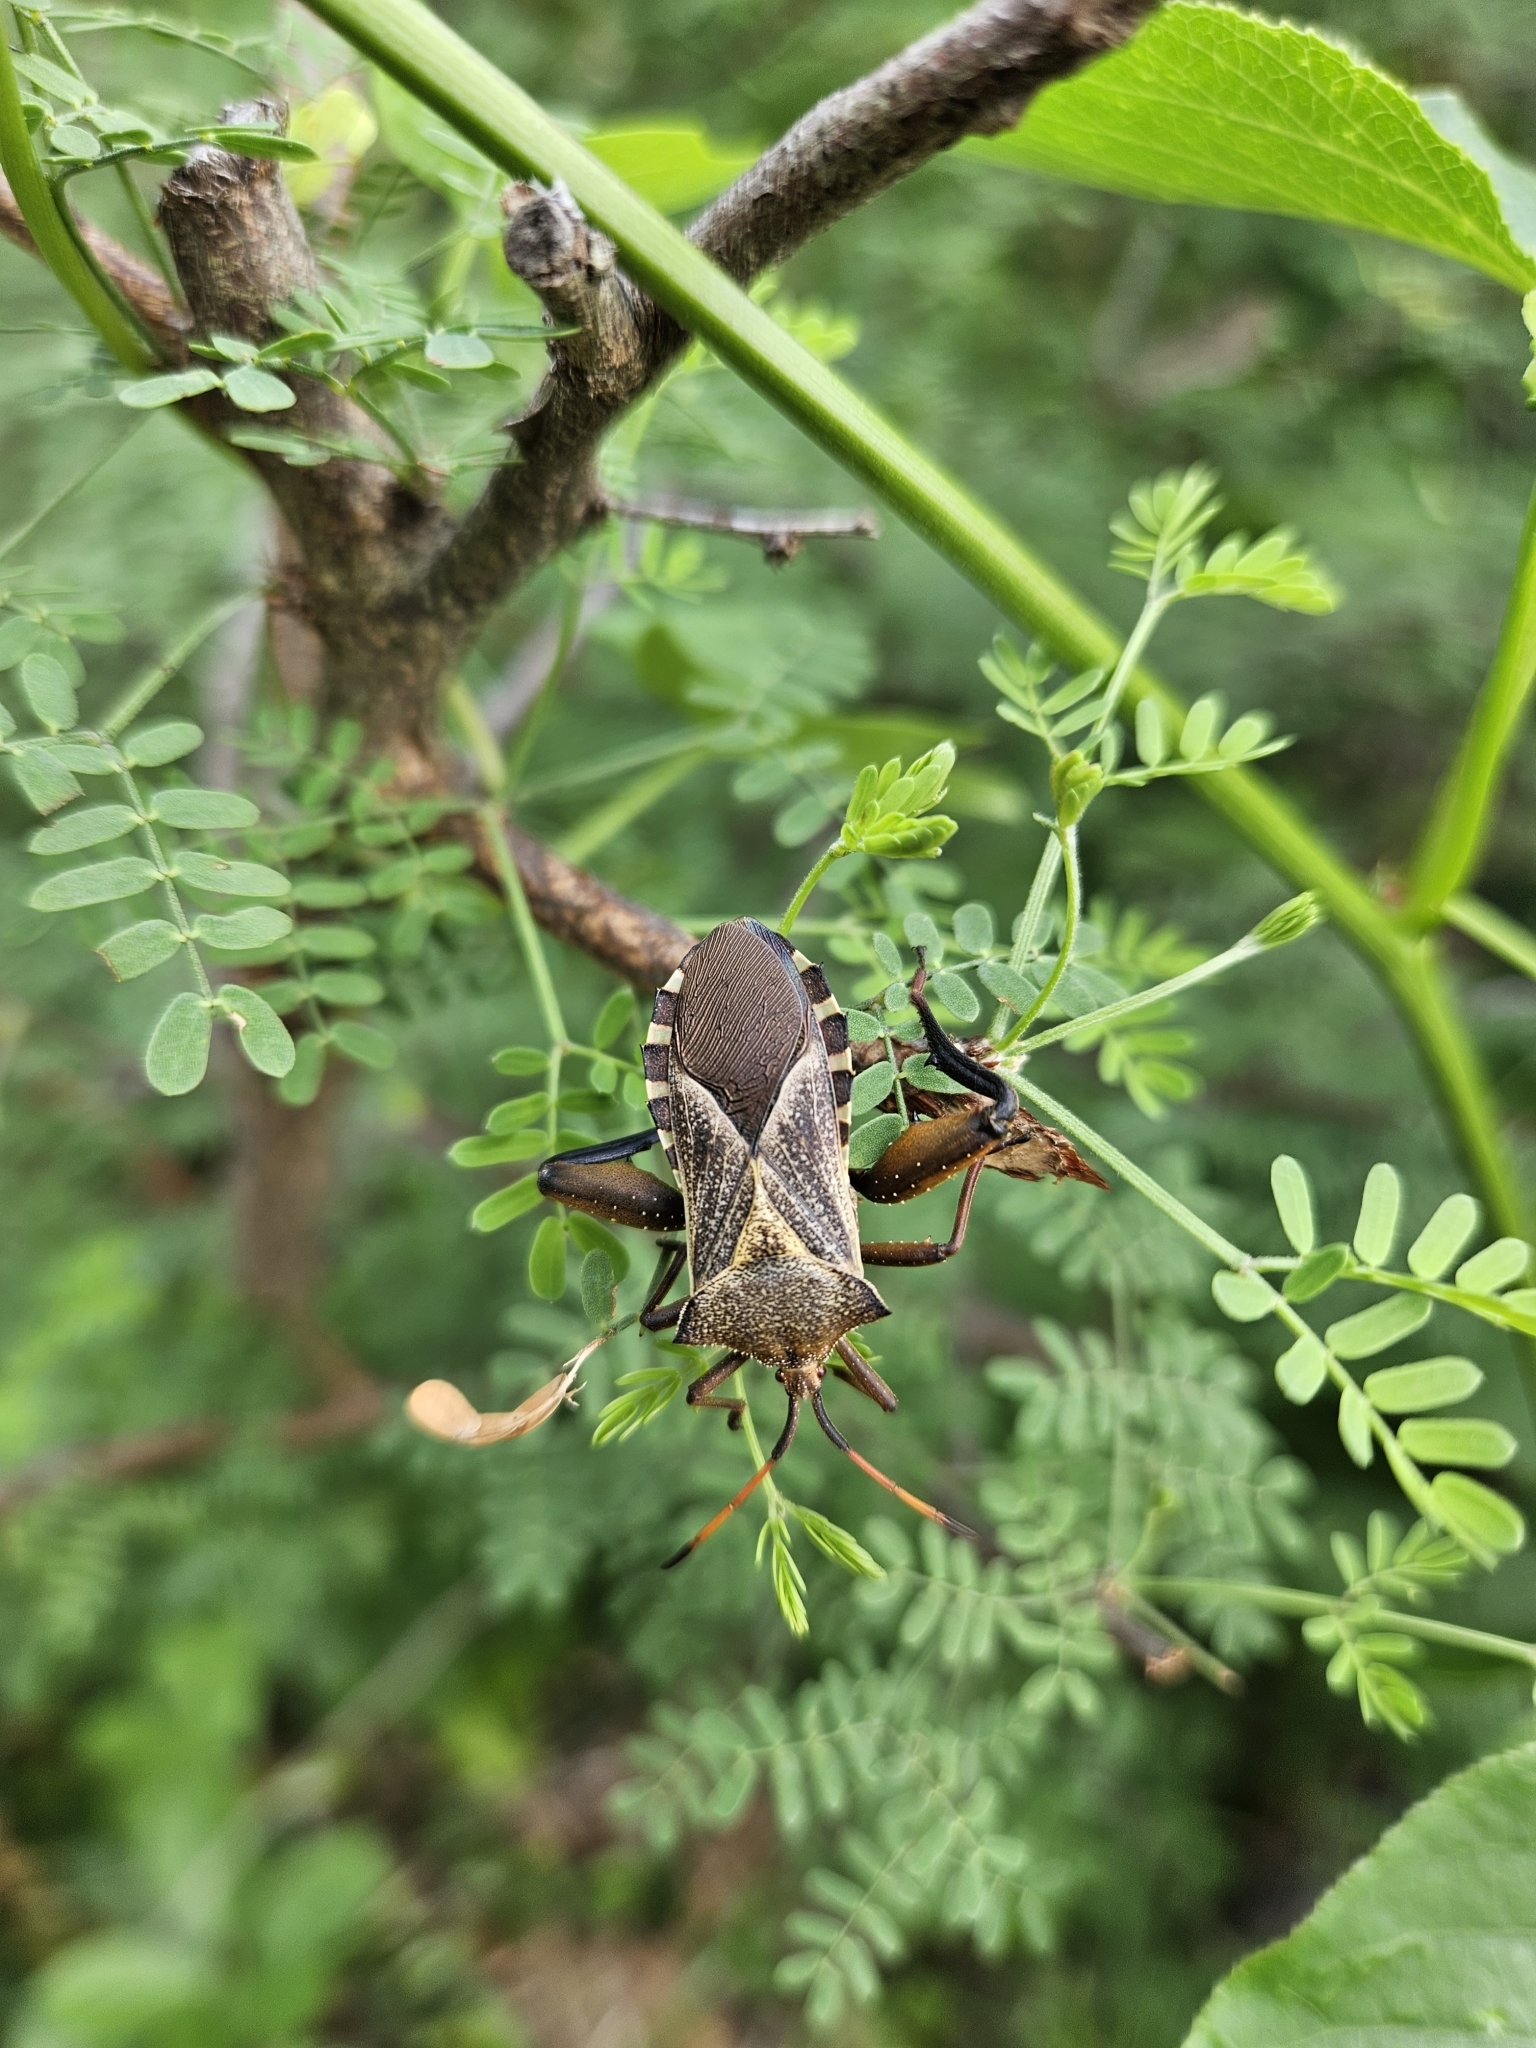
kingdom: Animalia
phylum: Arthropoda
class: Insecta
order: Hemiptera
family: Coreidae
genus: Mozena
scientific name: Mozena obtusa
